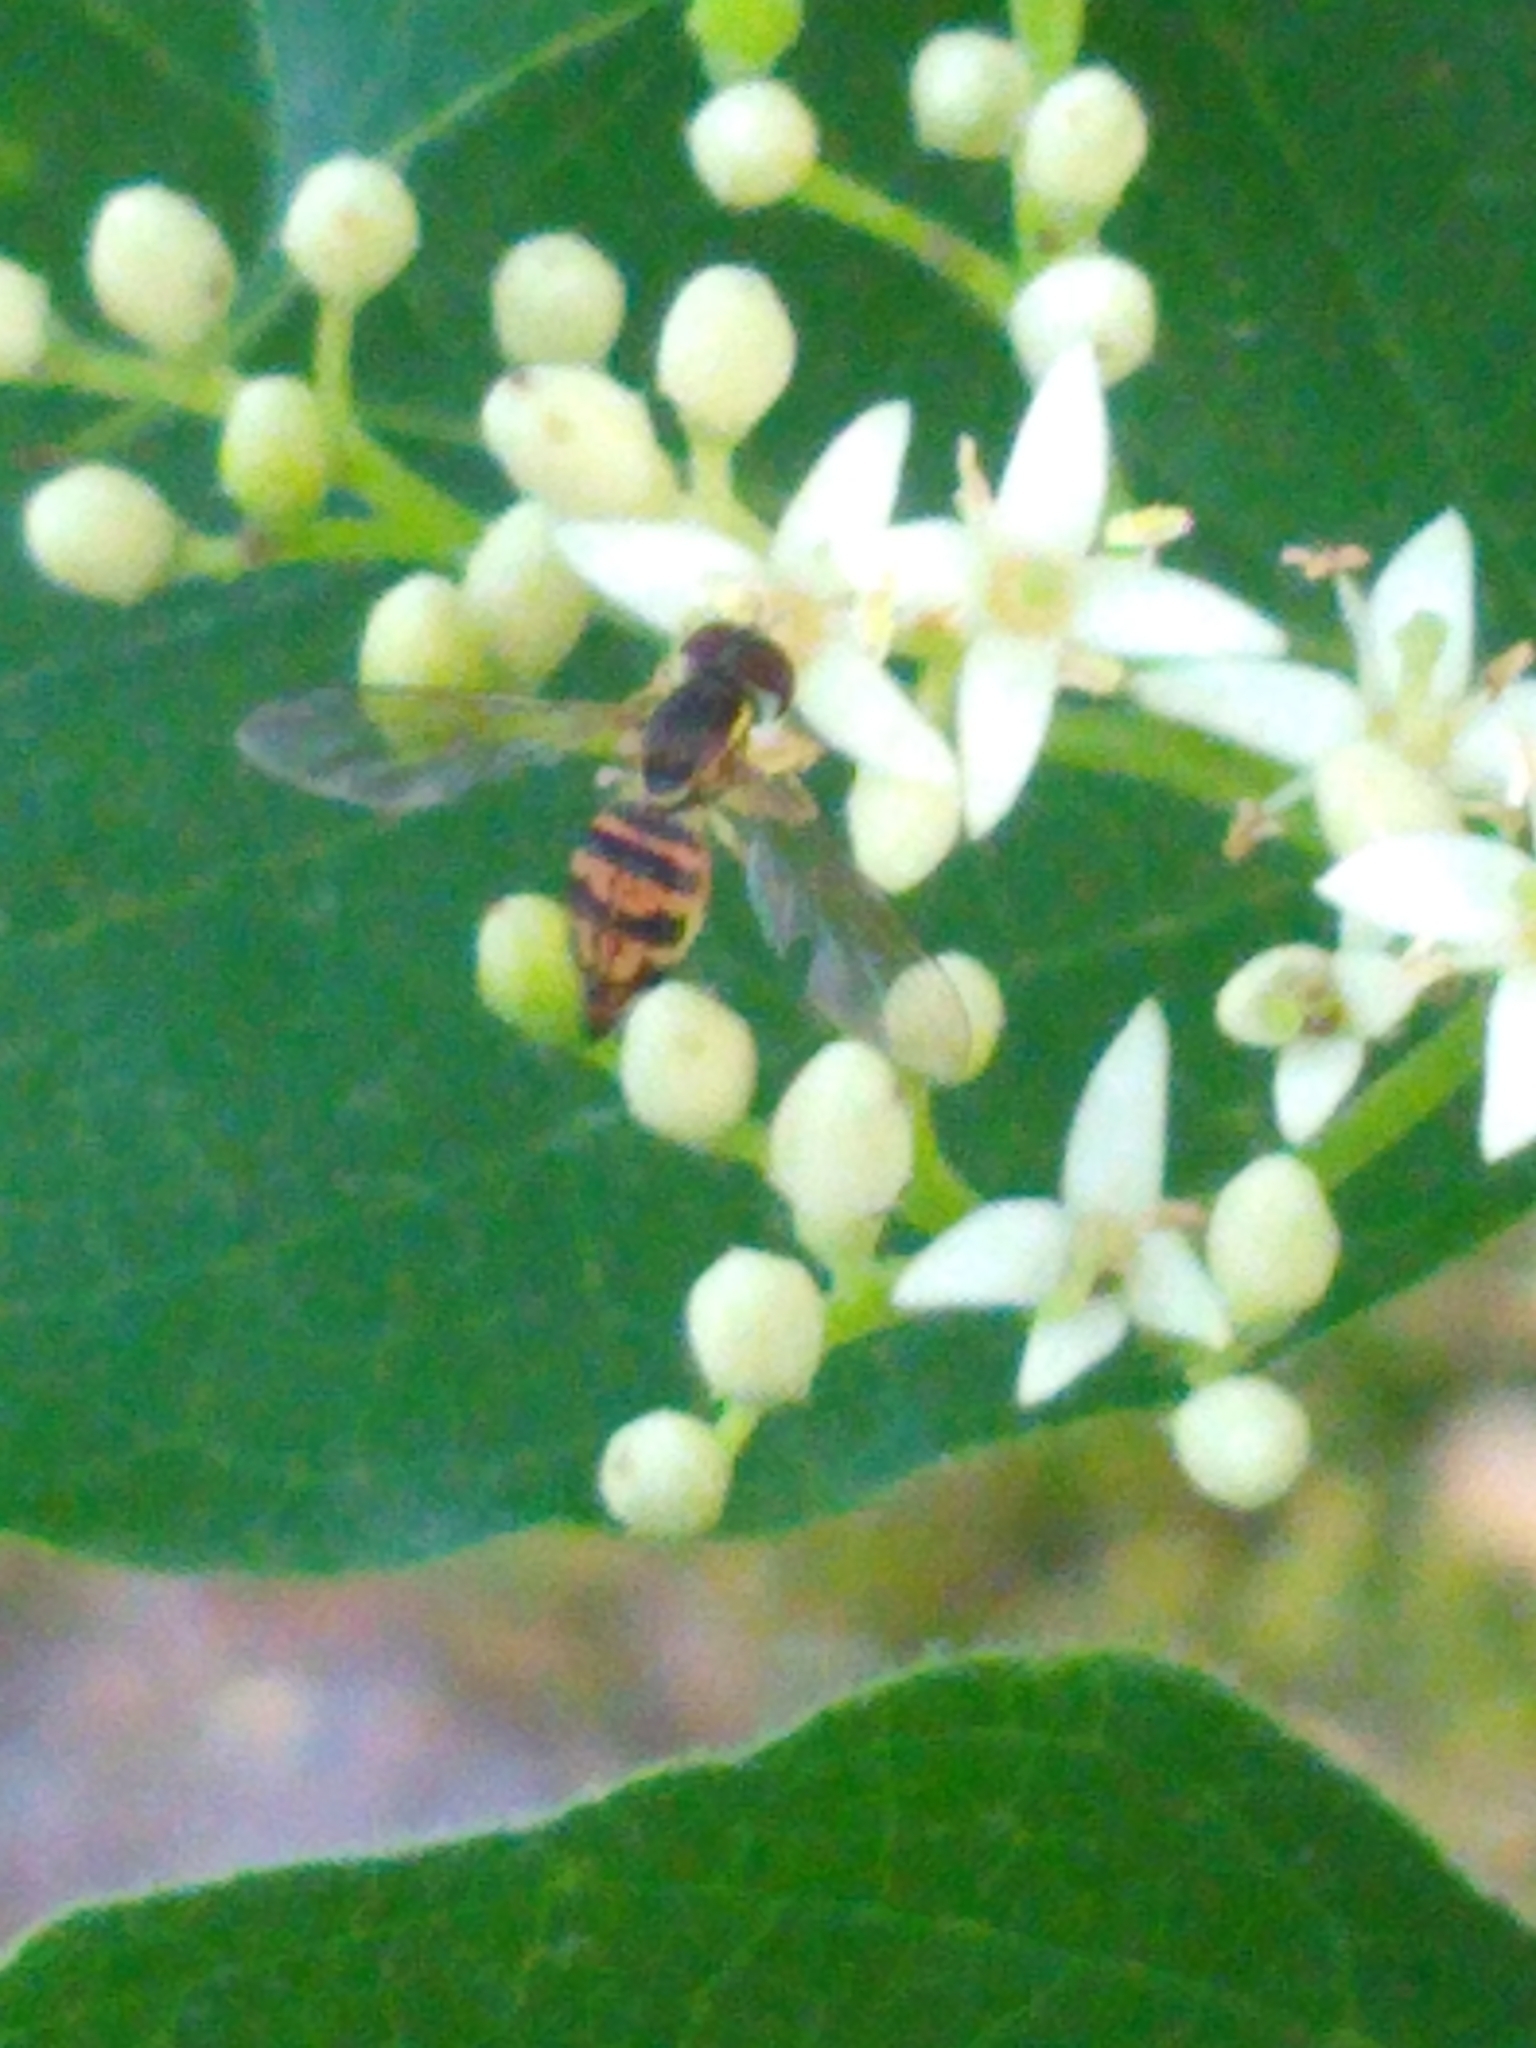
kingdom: Animalia
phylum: Arthropoda
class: Insecta
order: Diptera
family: Syrphidae
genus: Toxomerus
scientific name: Toxomerus geminatus
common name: Eastern calligrapher
